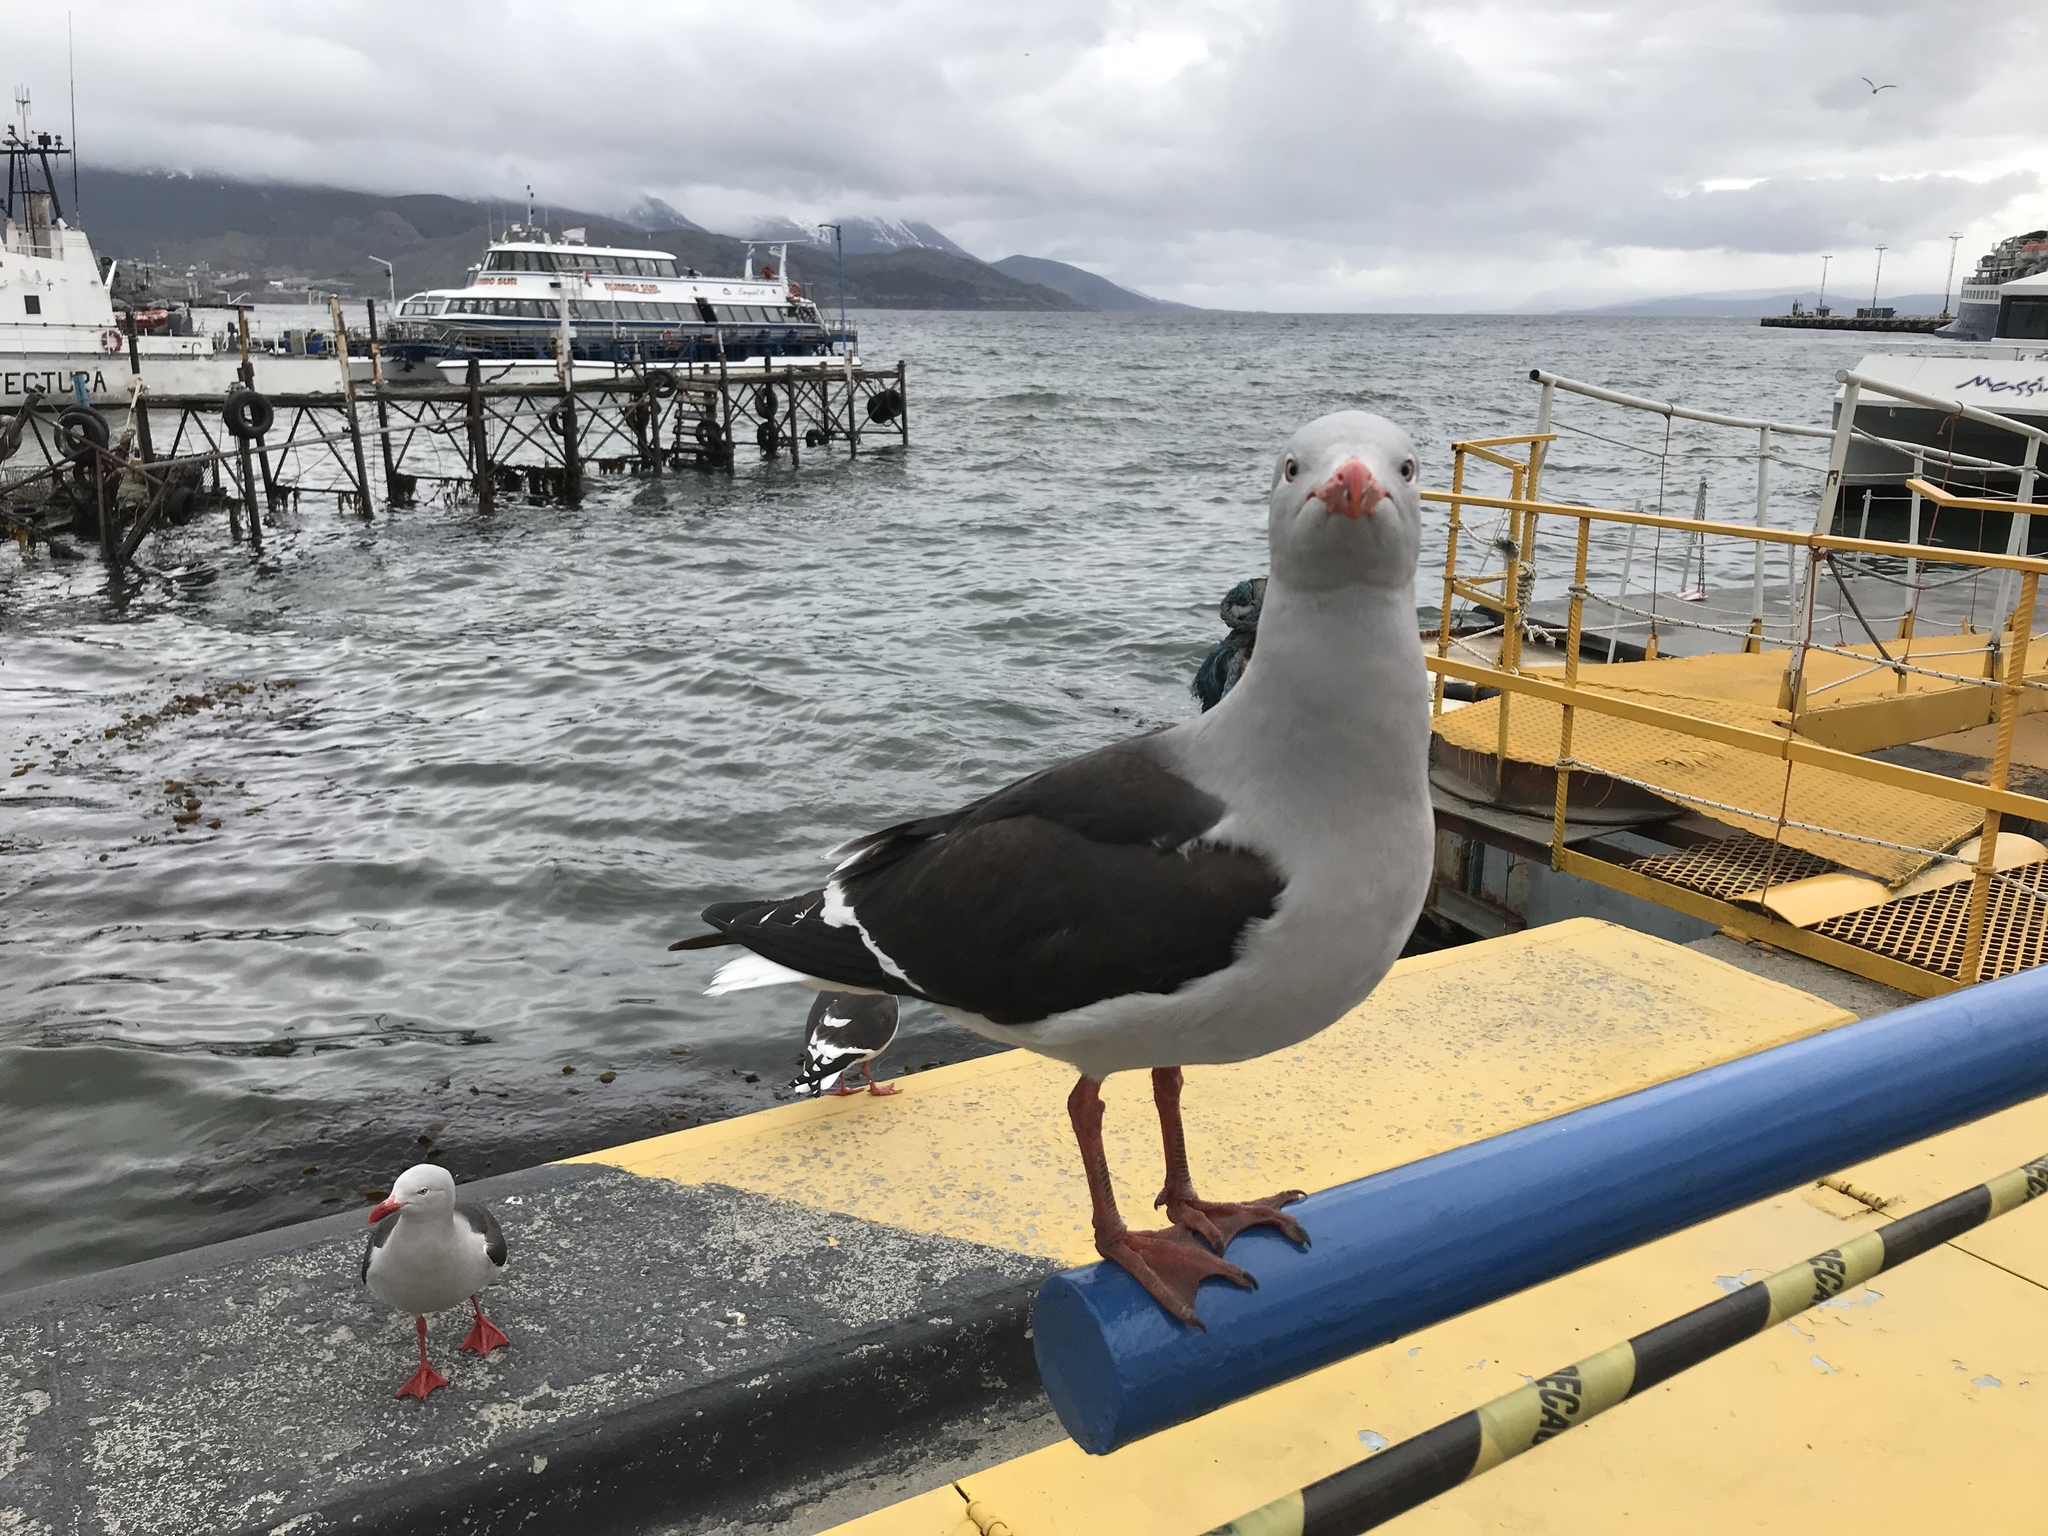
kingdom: Animalia
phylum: Chordata
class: Aves
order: Charadriiformes
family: Laridae
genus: Leucophaeus
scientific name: Leucophaeus scoresbii
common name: Dolphin gull
